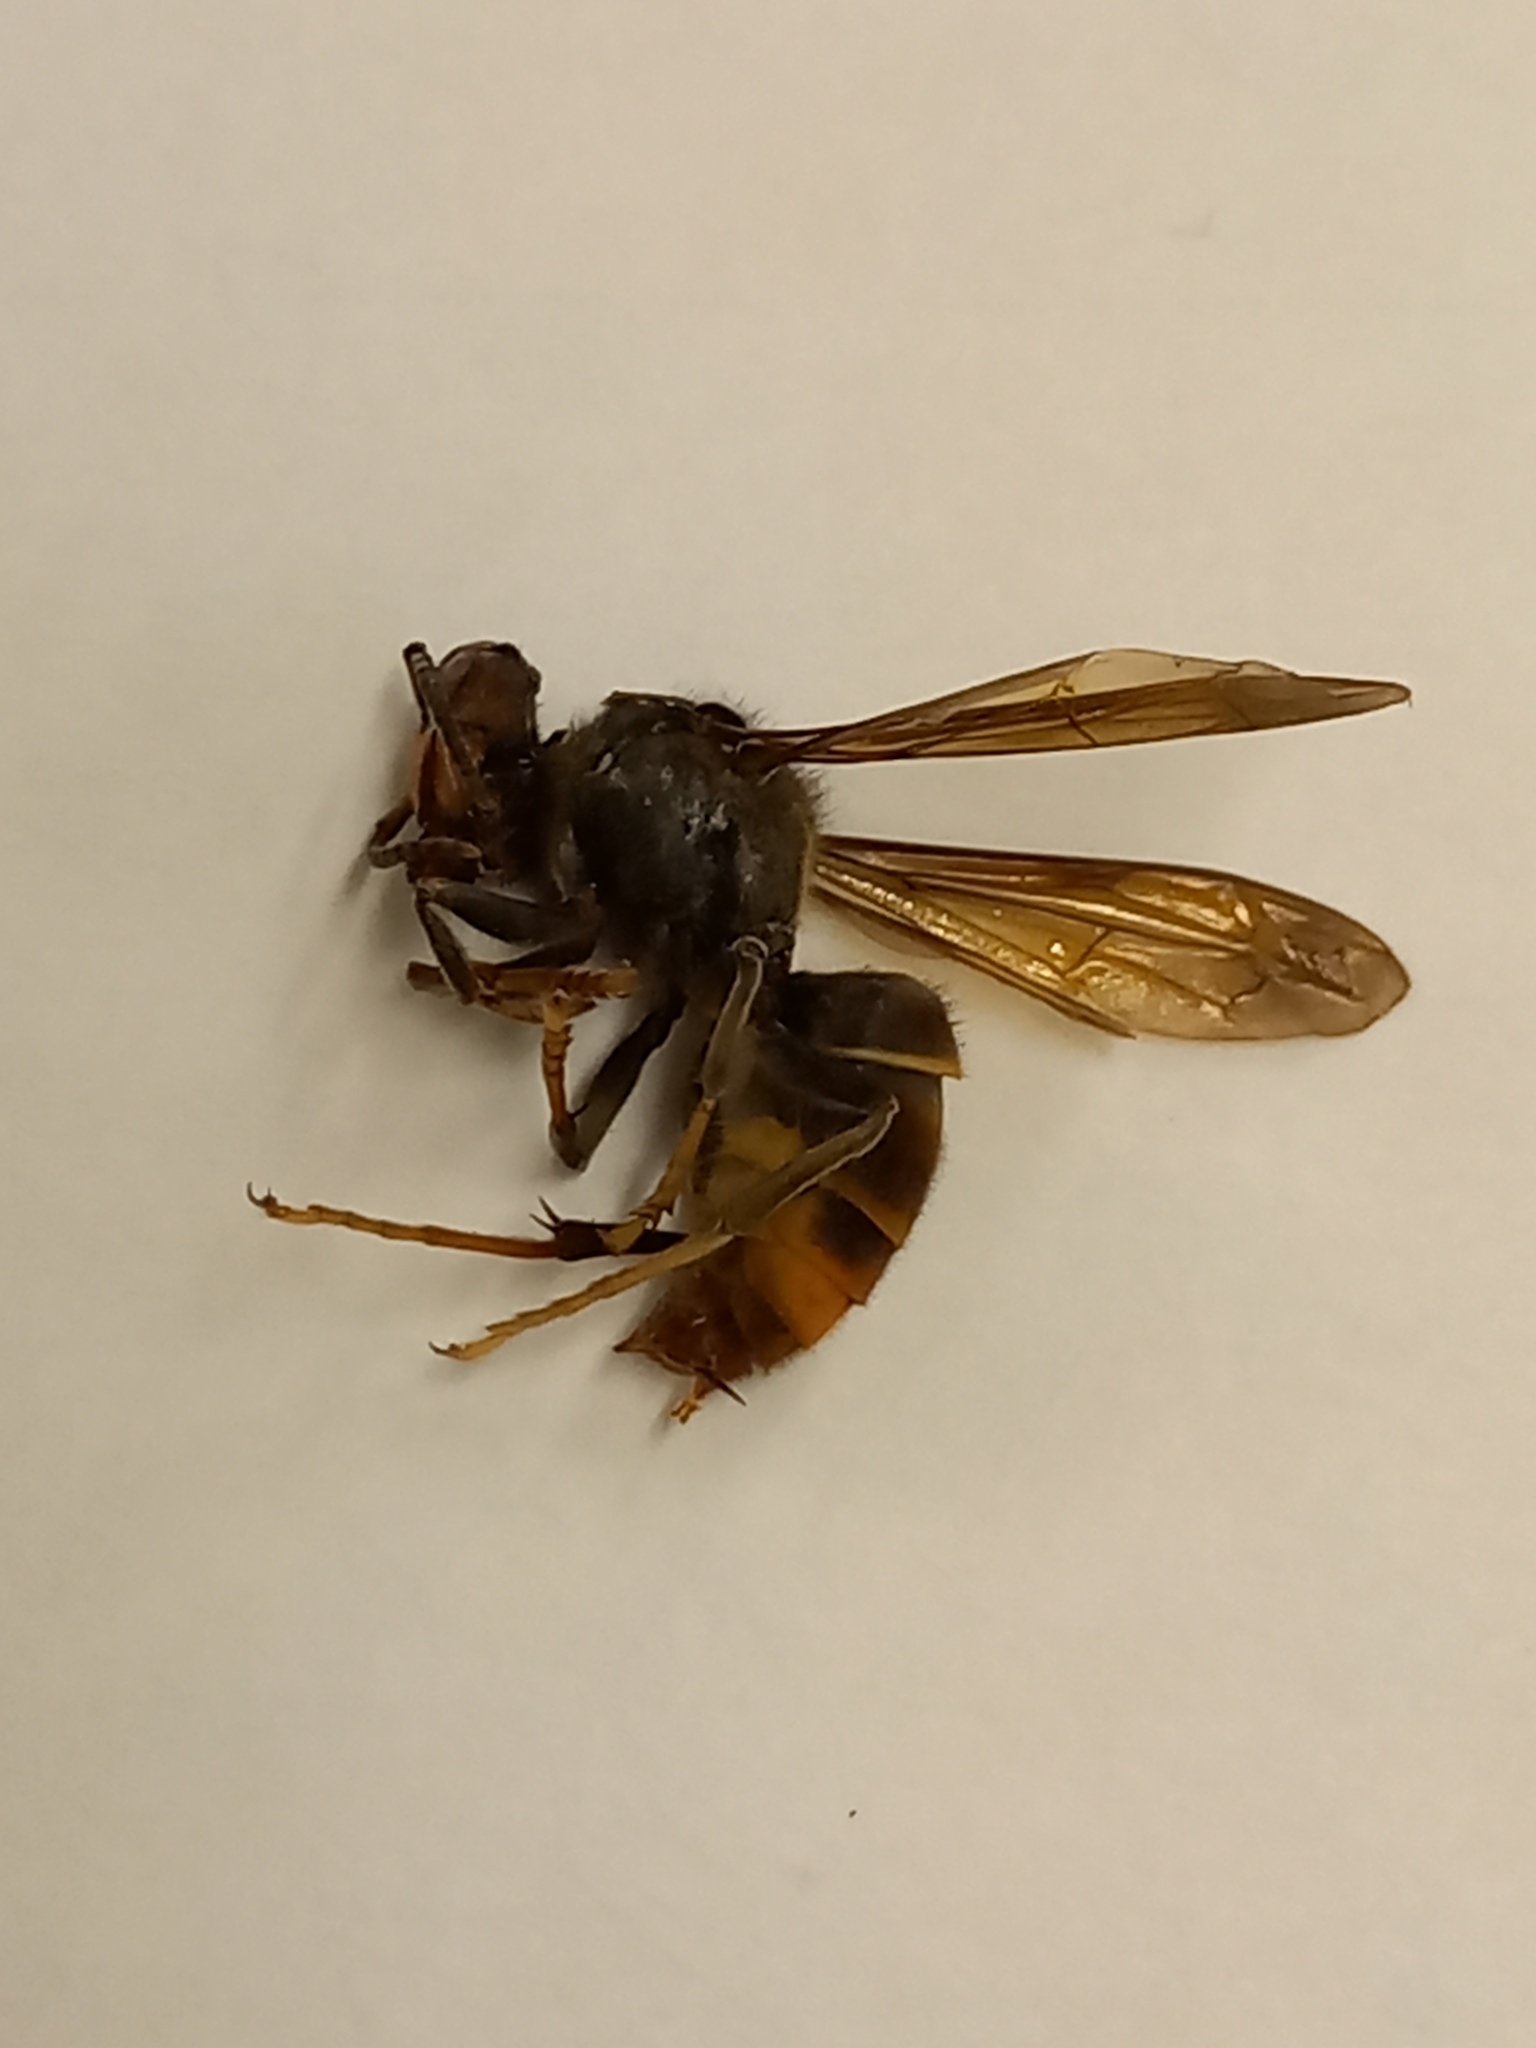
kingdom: Animalia
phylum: Arthropoda
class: Insecta
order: Hymenoptera
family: Vespidae
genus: Vespa
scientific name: Vespa velutina
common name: Asian hornet
